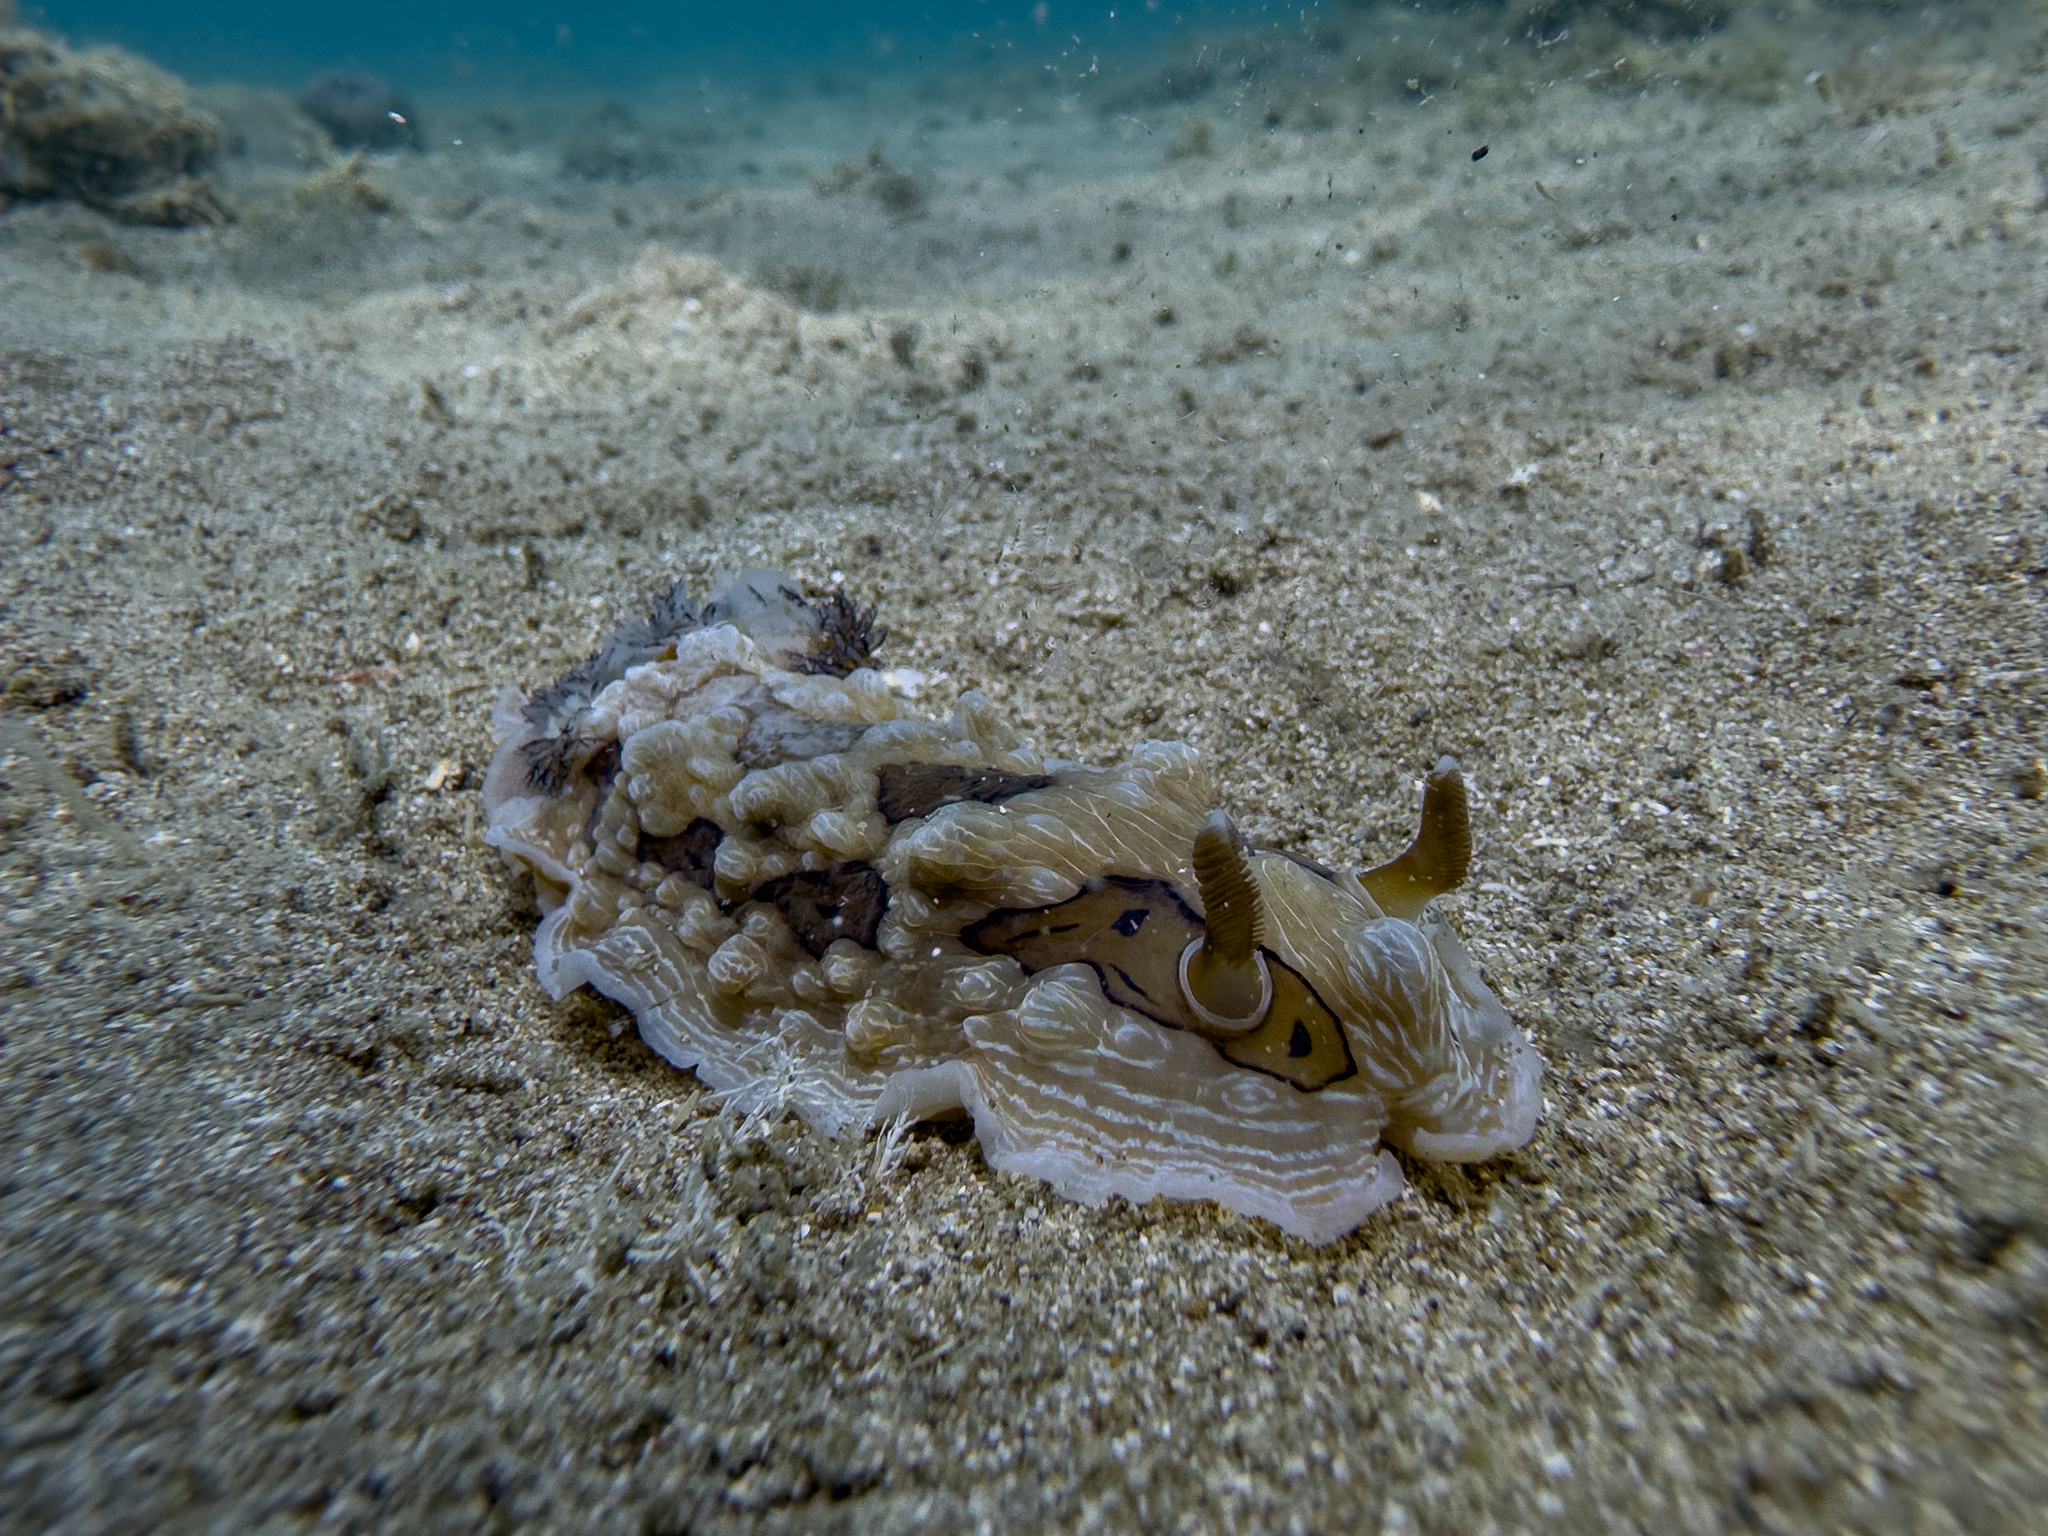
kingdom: Animalia
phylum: Mollusca
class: Gastropoda
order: Nudibranchia
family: Dendrodorididae
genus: Dendrodoris
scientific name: Dendrodoris krusensternii
